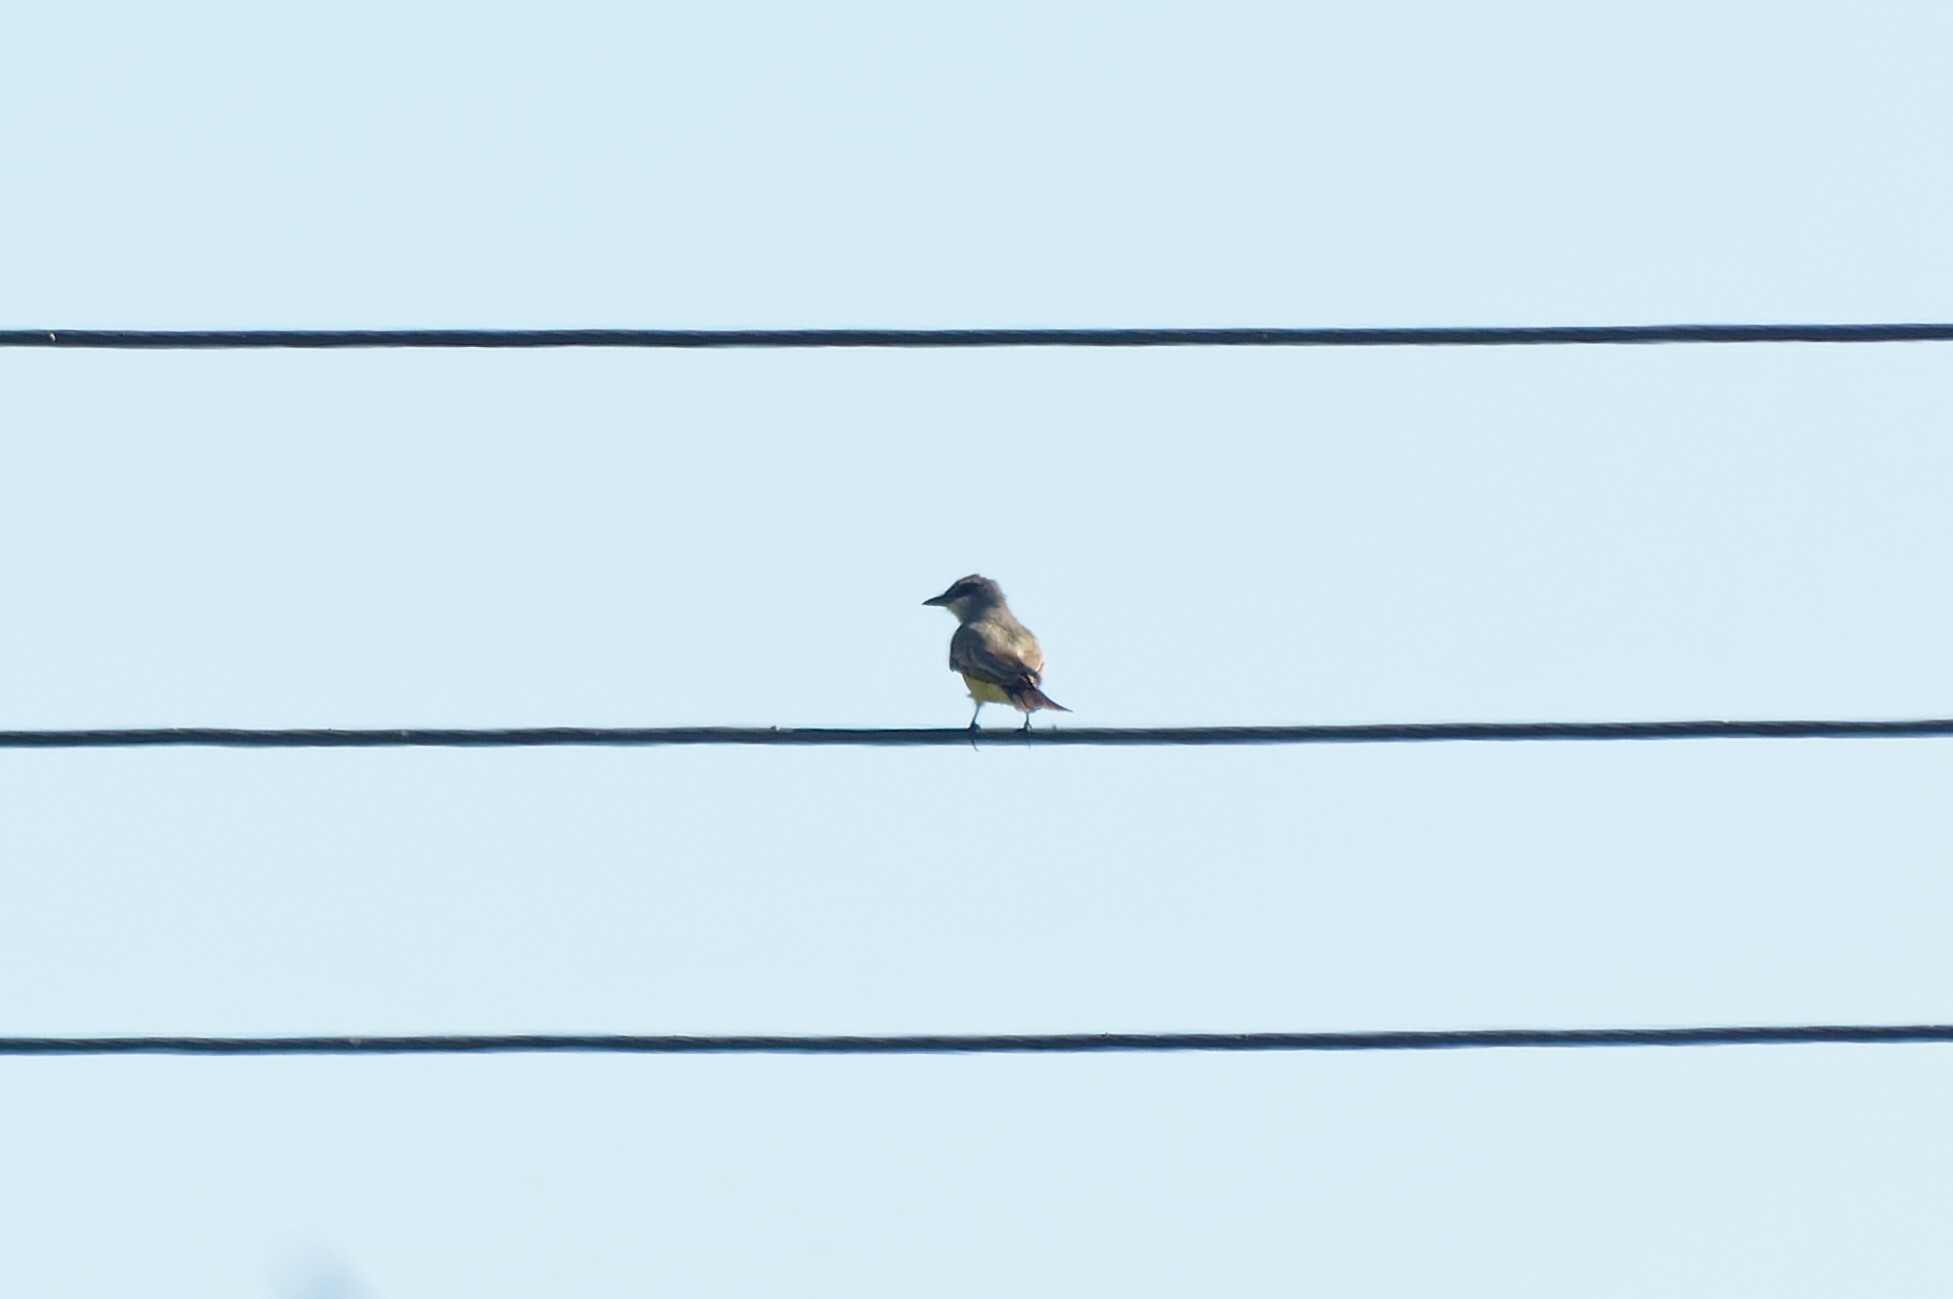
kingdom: Animalia
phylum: Chordata
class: Aves
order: Passeriformes
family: Tyrannidae
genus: Tyrannus
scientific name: Tyrannus vociferans
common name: Cassin's kingbird
